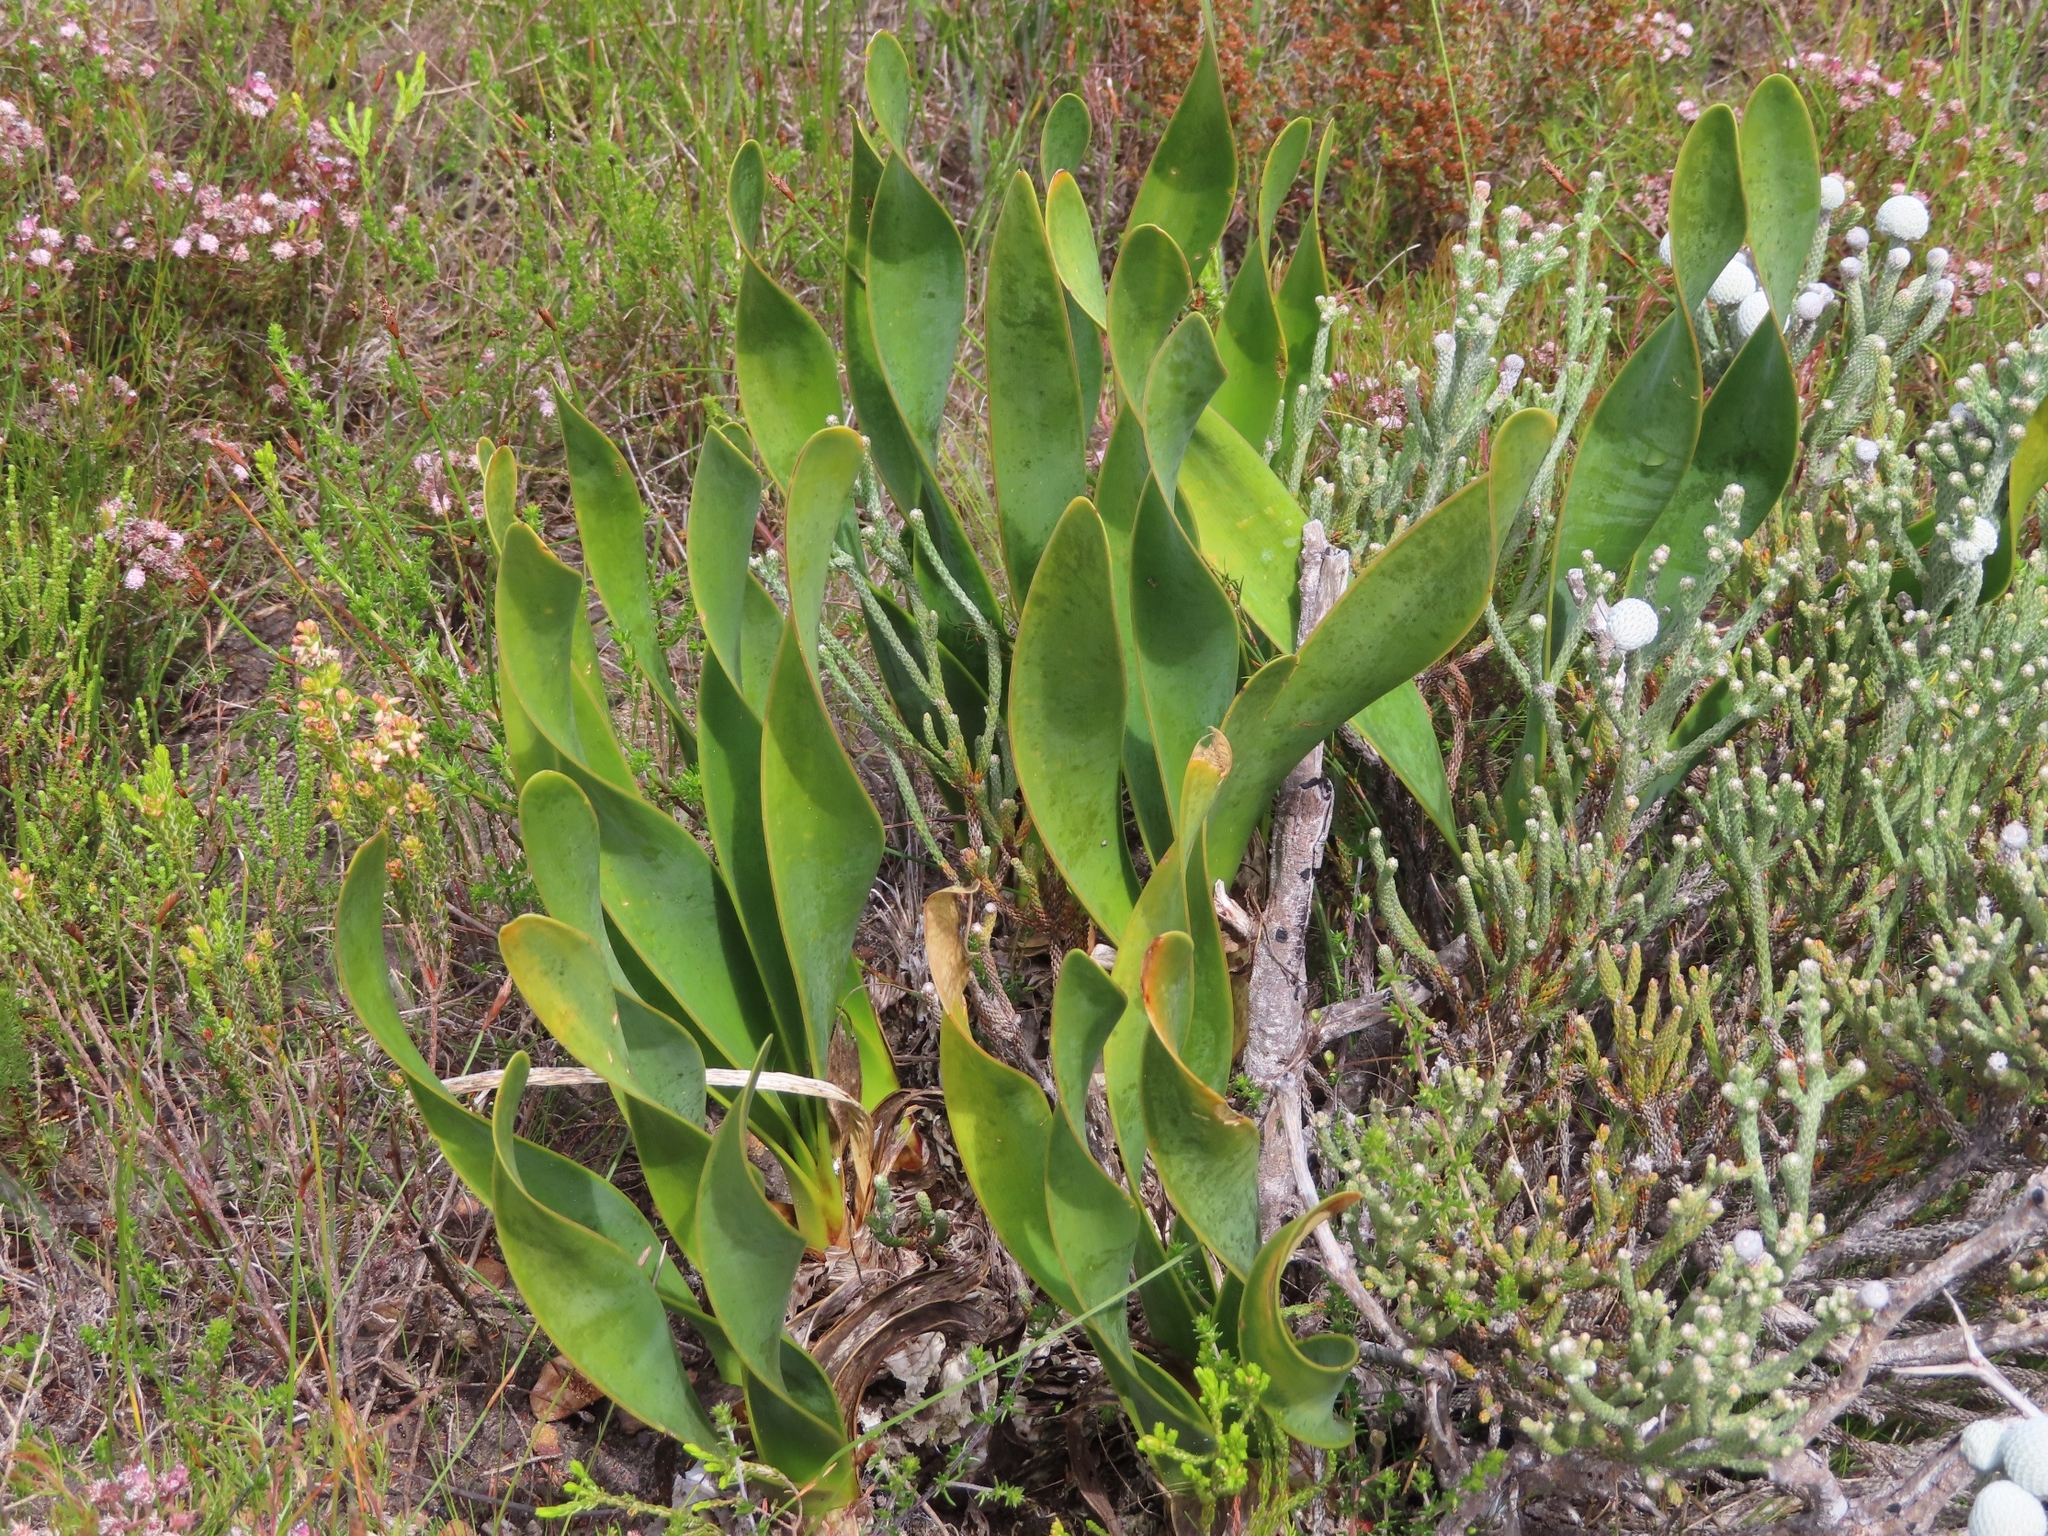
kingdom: Plantae
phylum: Tracheophyta
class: Liliopsida
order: Asparagales
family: Amaryllidaceae
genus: Cyrtanthus
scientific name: Cyrtanthus carneus
